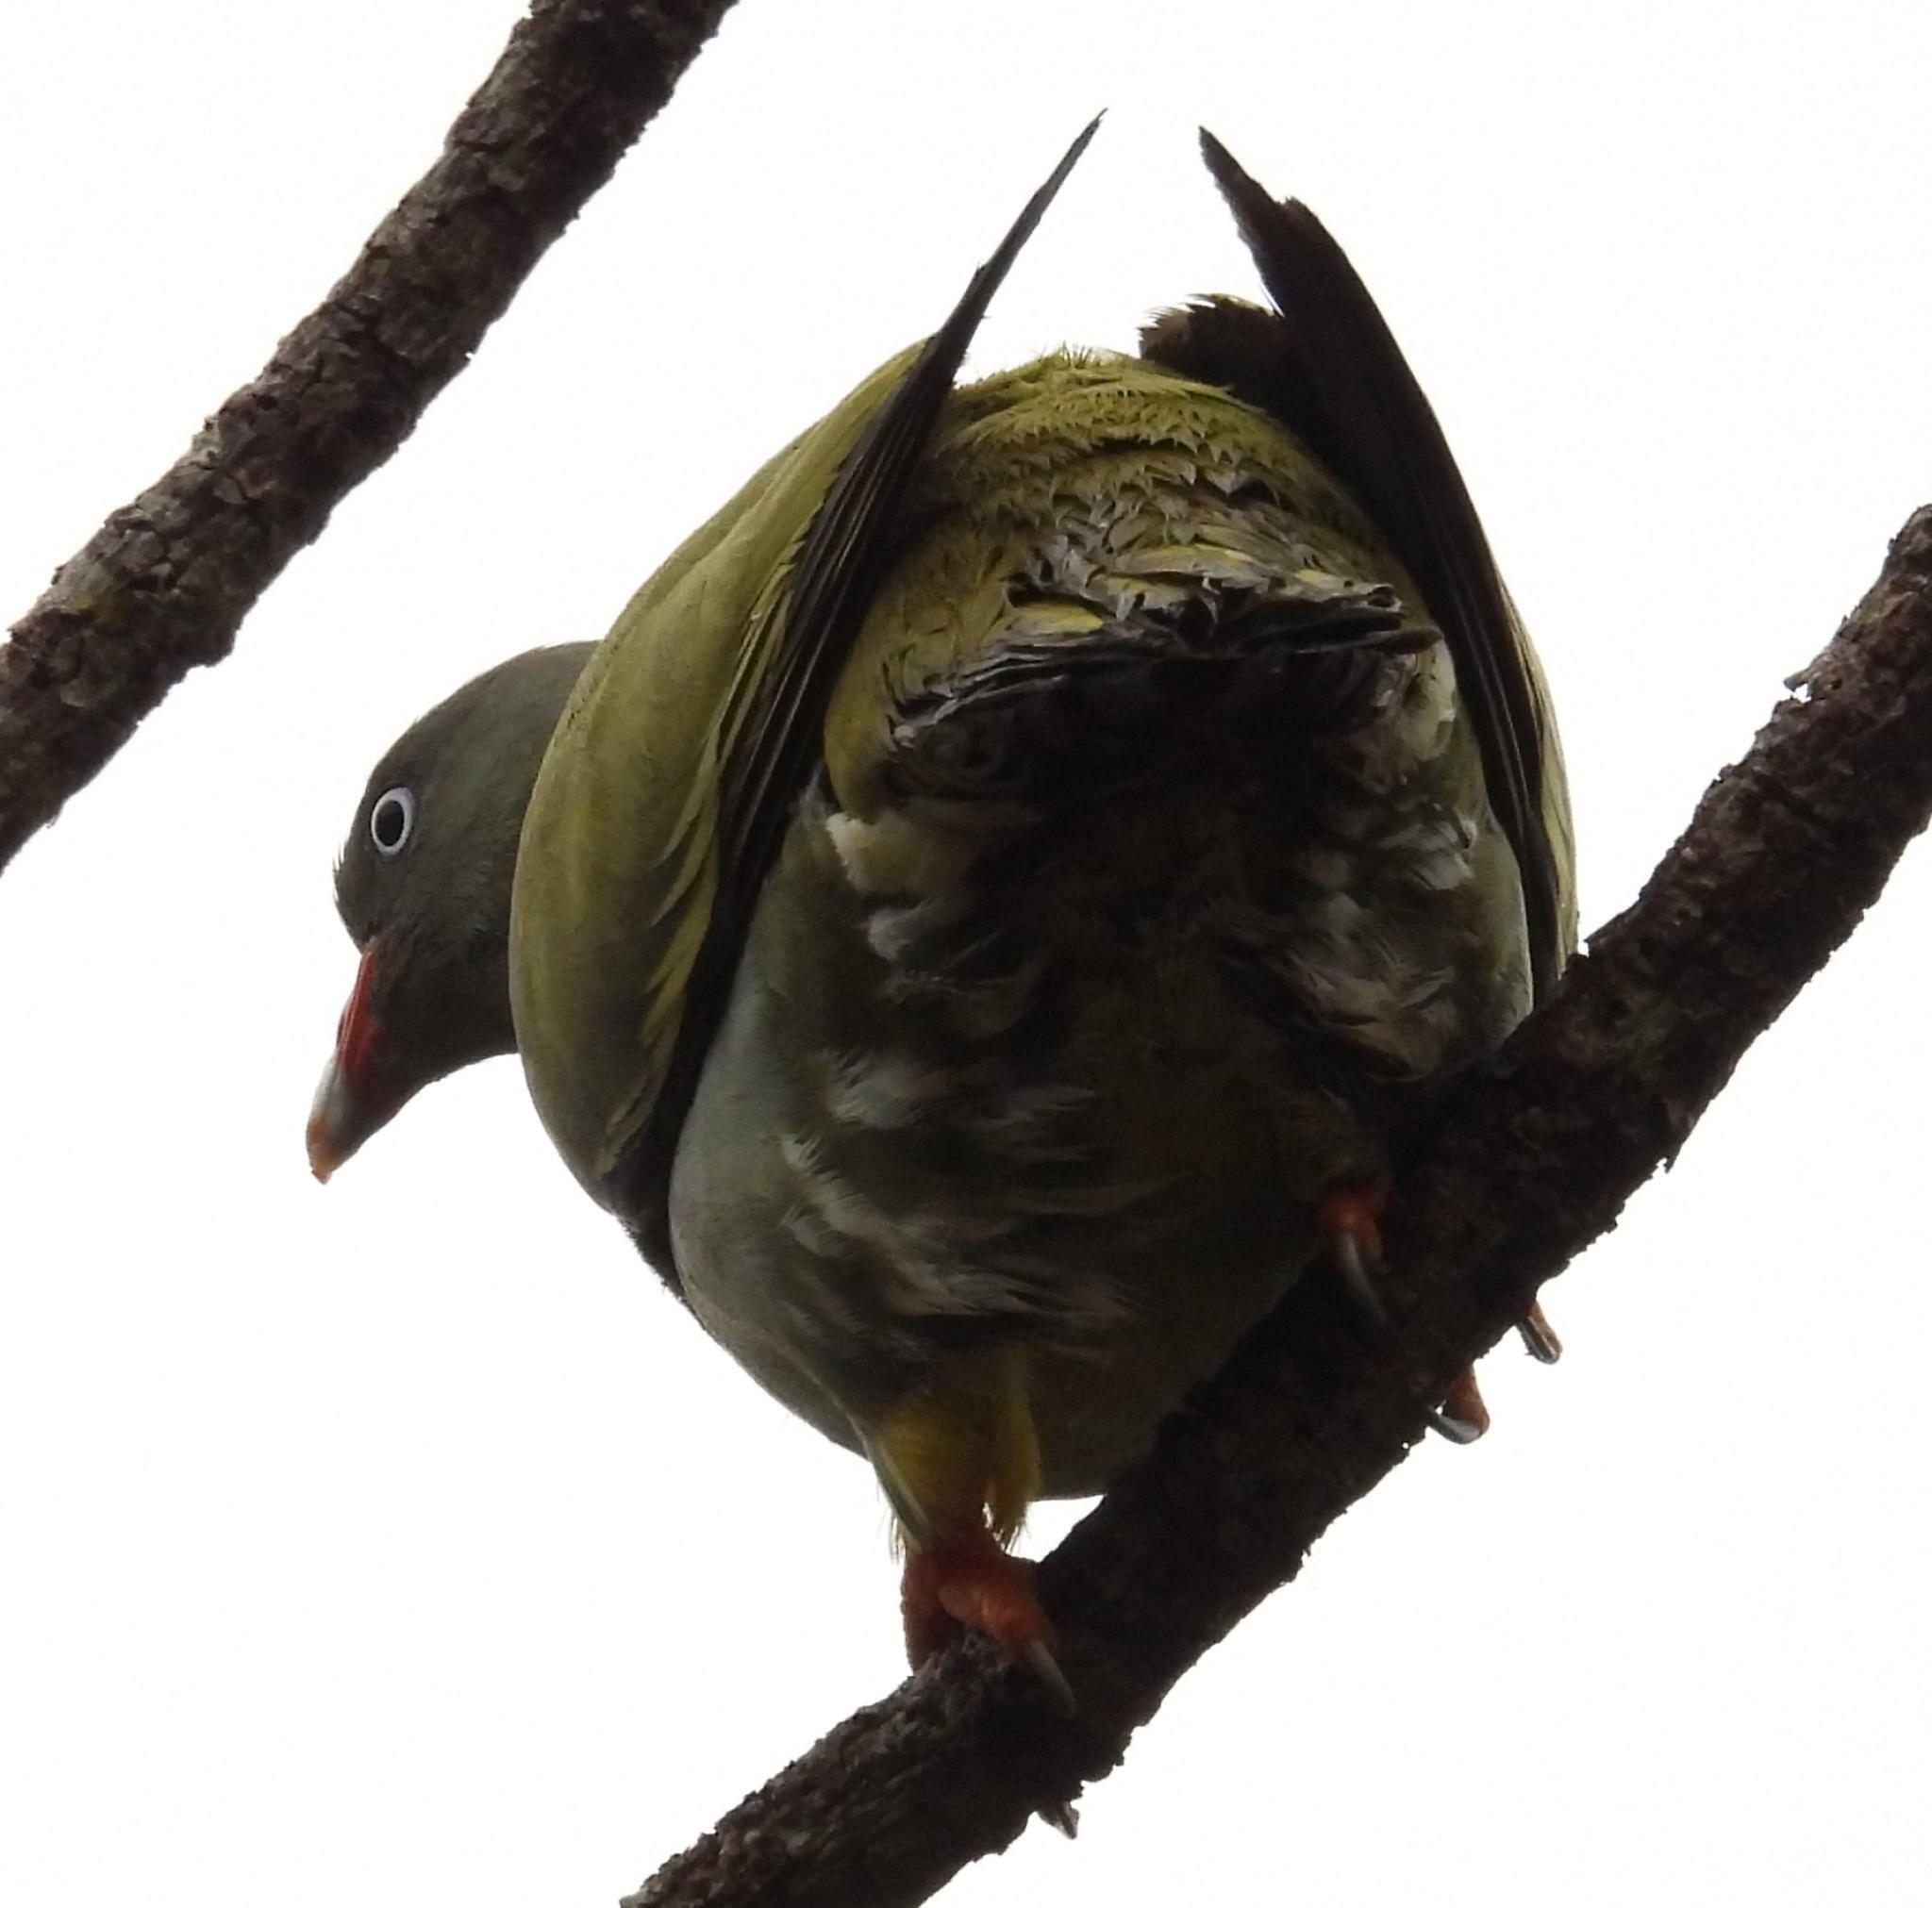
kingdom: Animalia
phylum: Chordata
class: Aves
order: Columbiformes
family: Columbidae
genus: Treron
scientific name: Treron calvus
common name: African green pigeon
